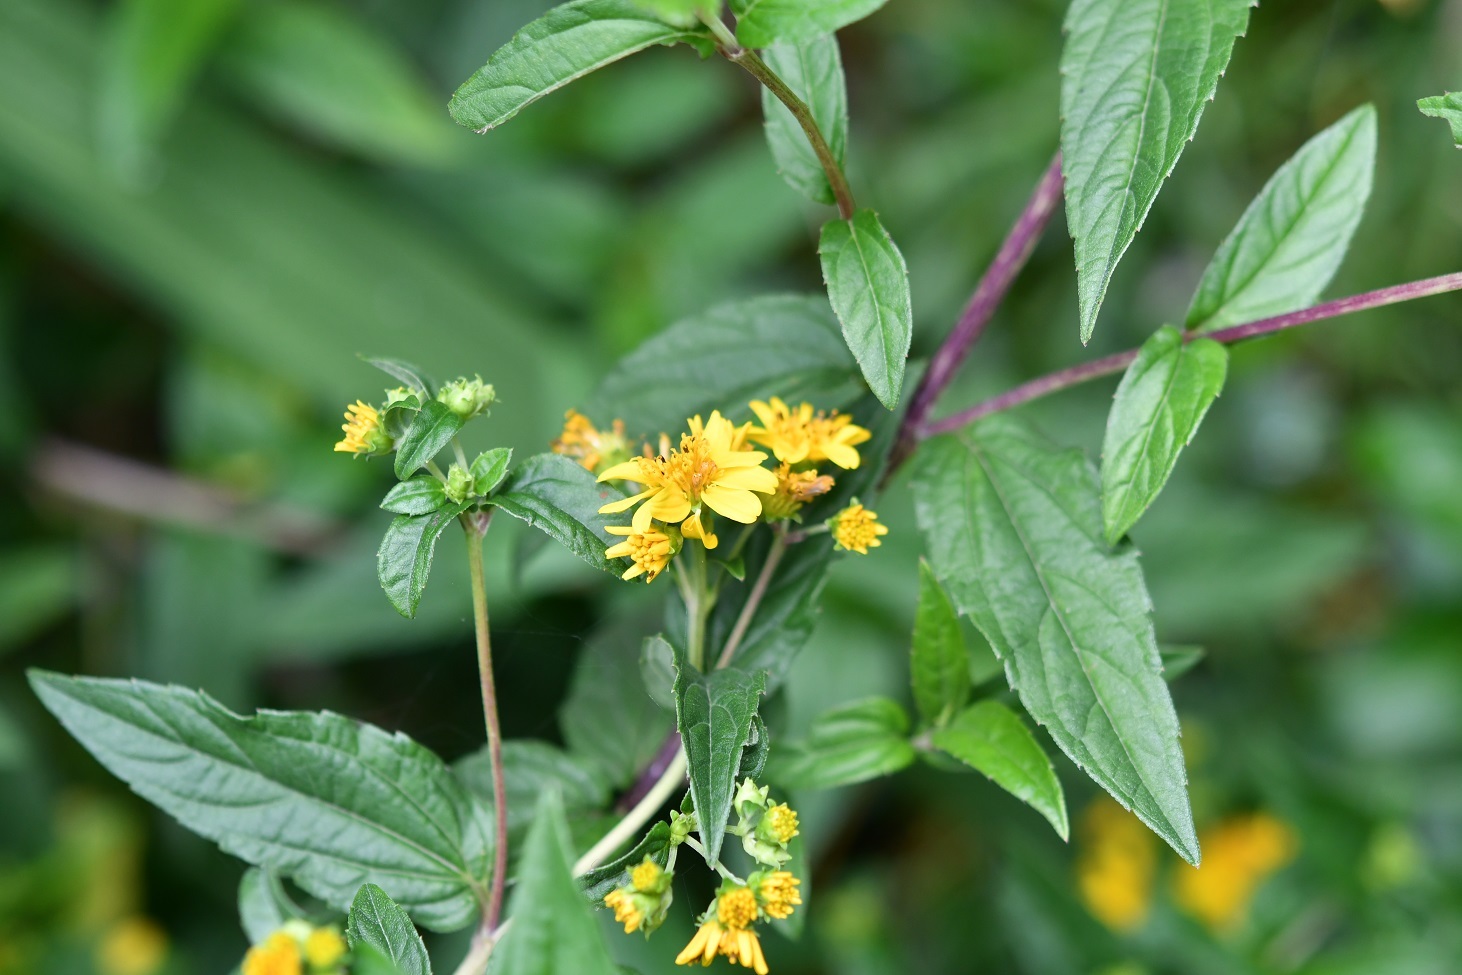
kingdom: Plantae
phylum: Tracheophyta
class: Magnoliopsida
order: Asterales
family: Asteraceae
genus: Perymenium
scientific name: Perymenium ghiesbreghtii
